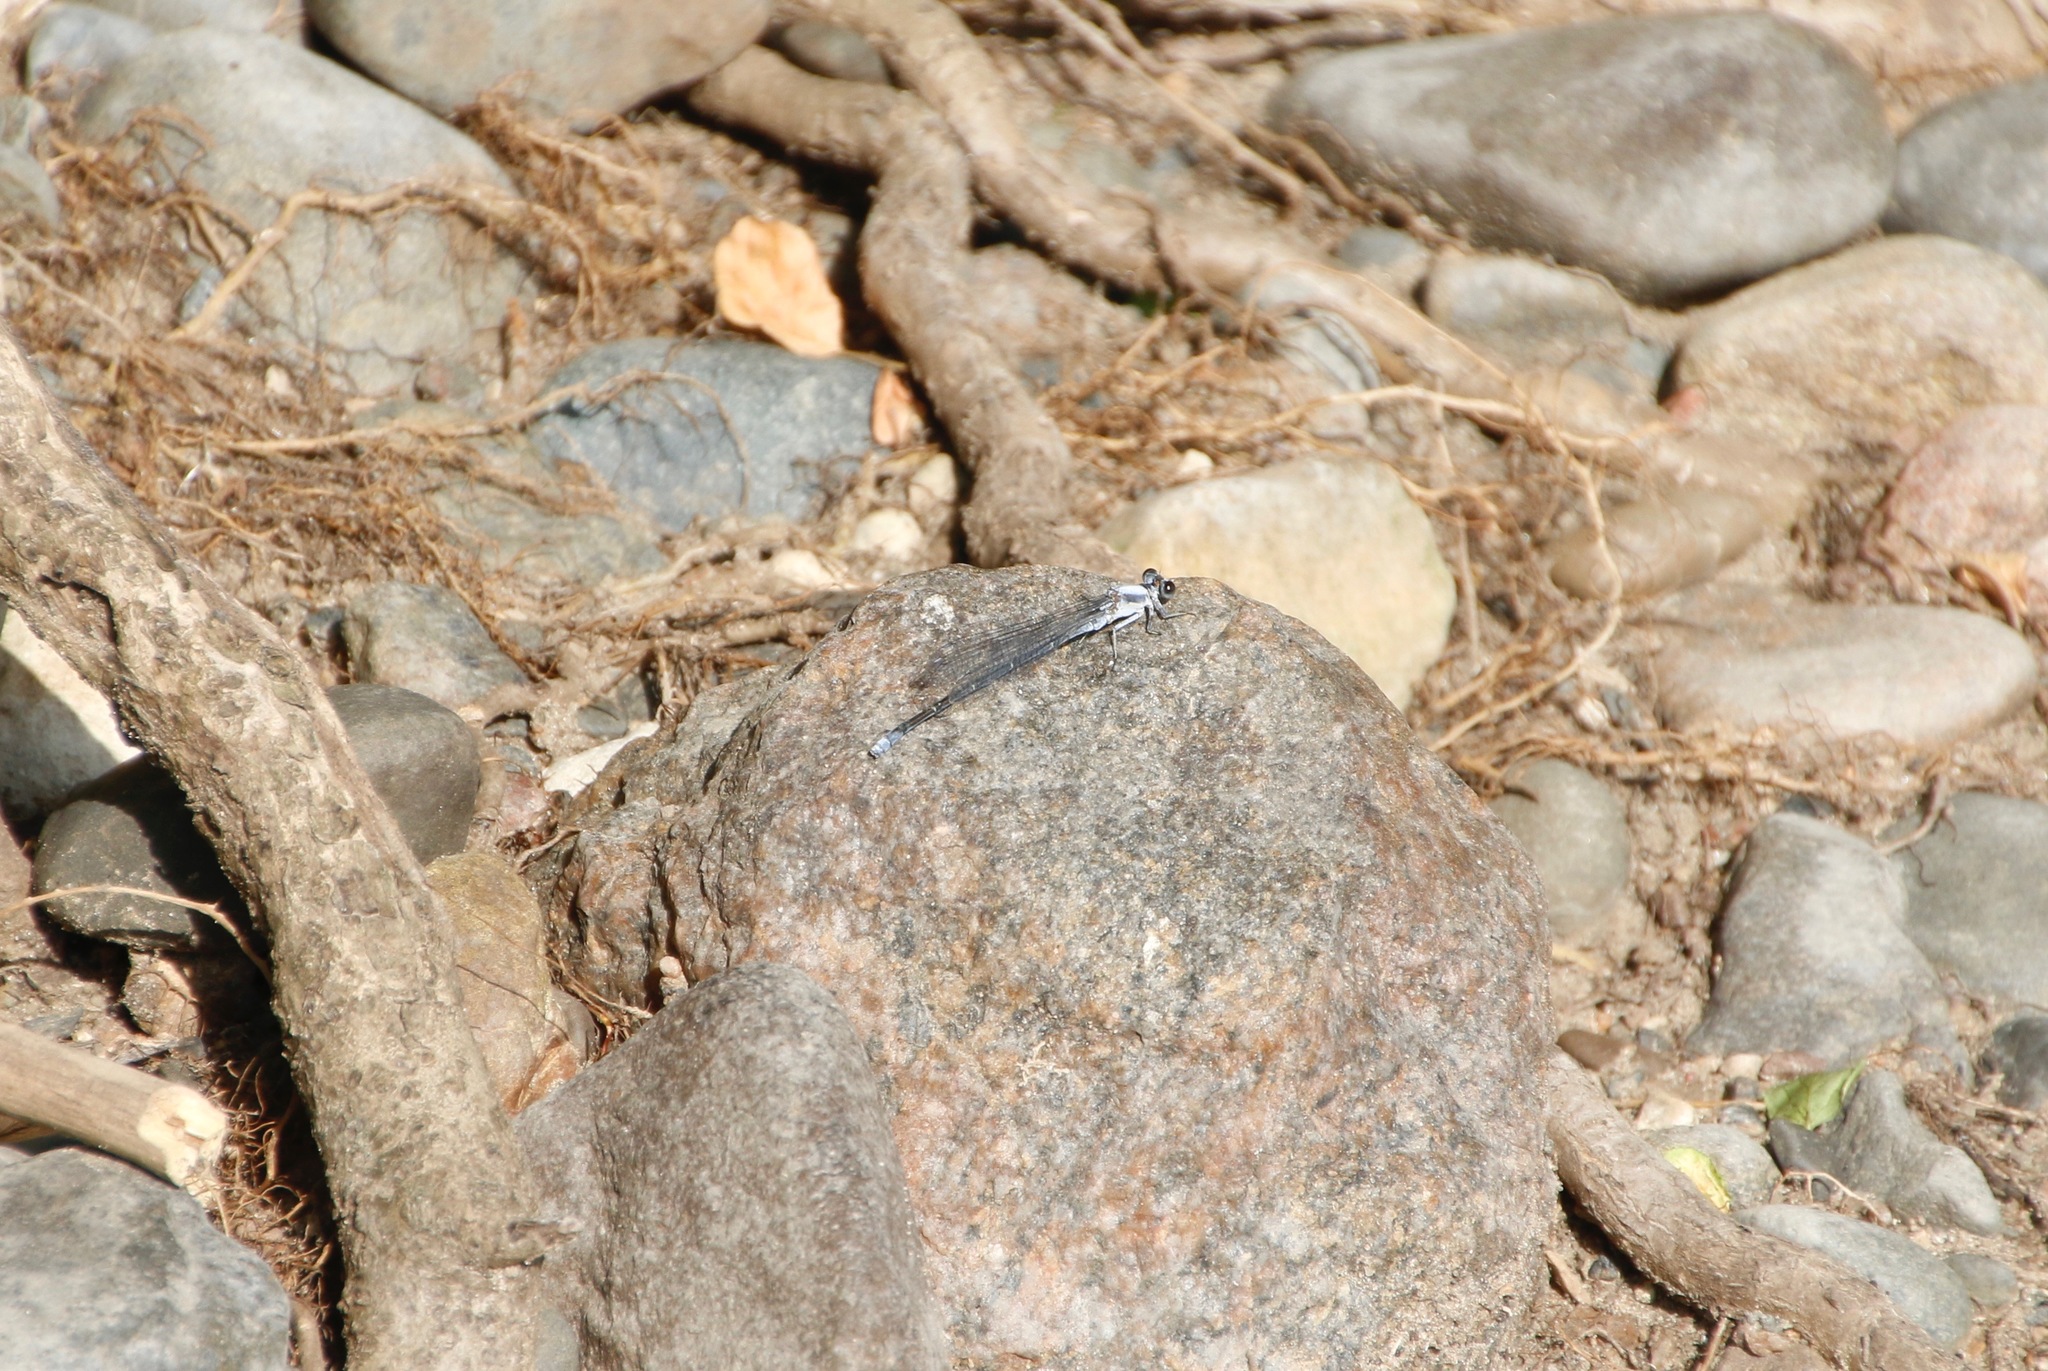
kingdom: Animalia
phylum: Arthropoda
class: Insecta
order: Odonata
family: Coenagrionidae
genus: Argia
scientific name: Argia moesta
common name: Powdered dancer
